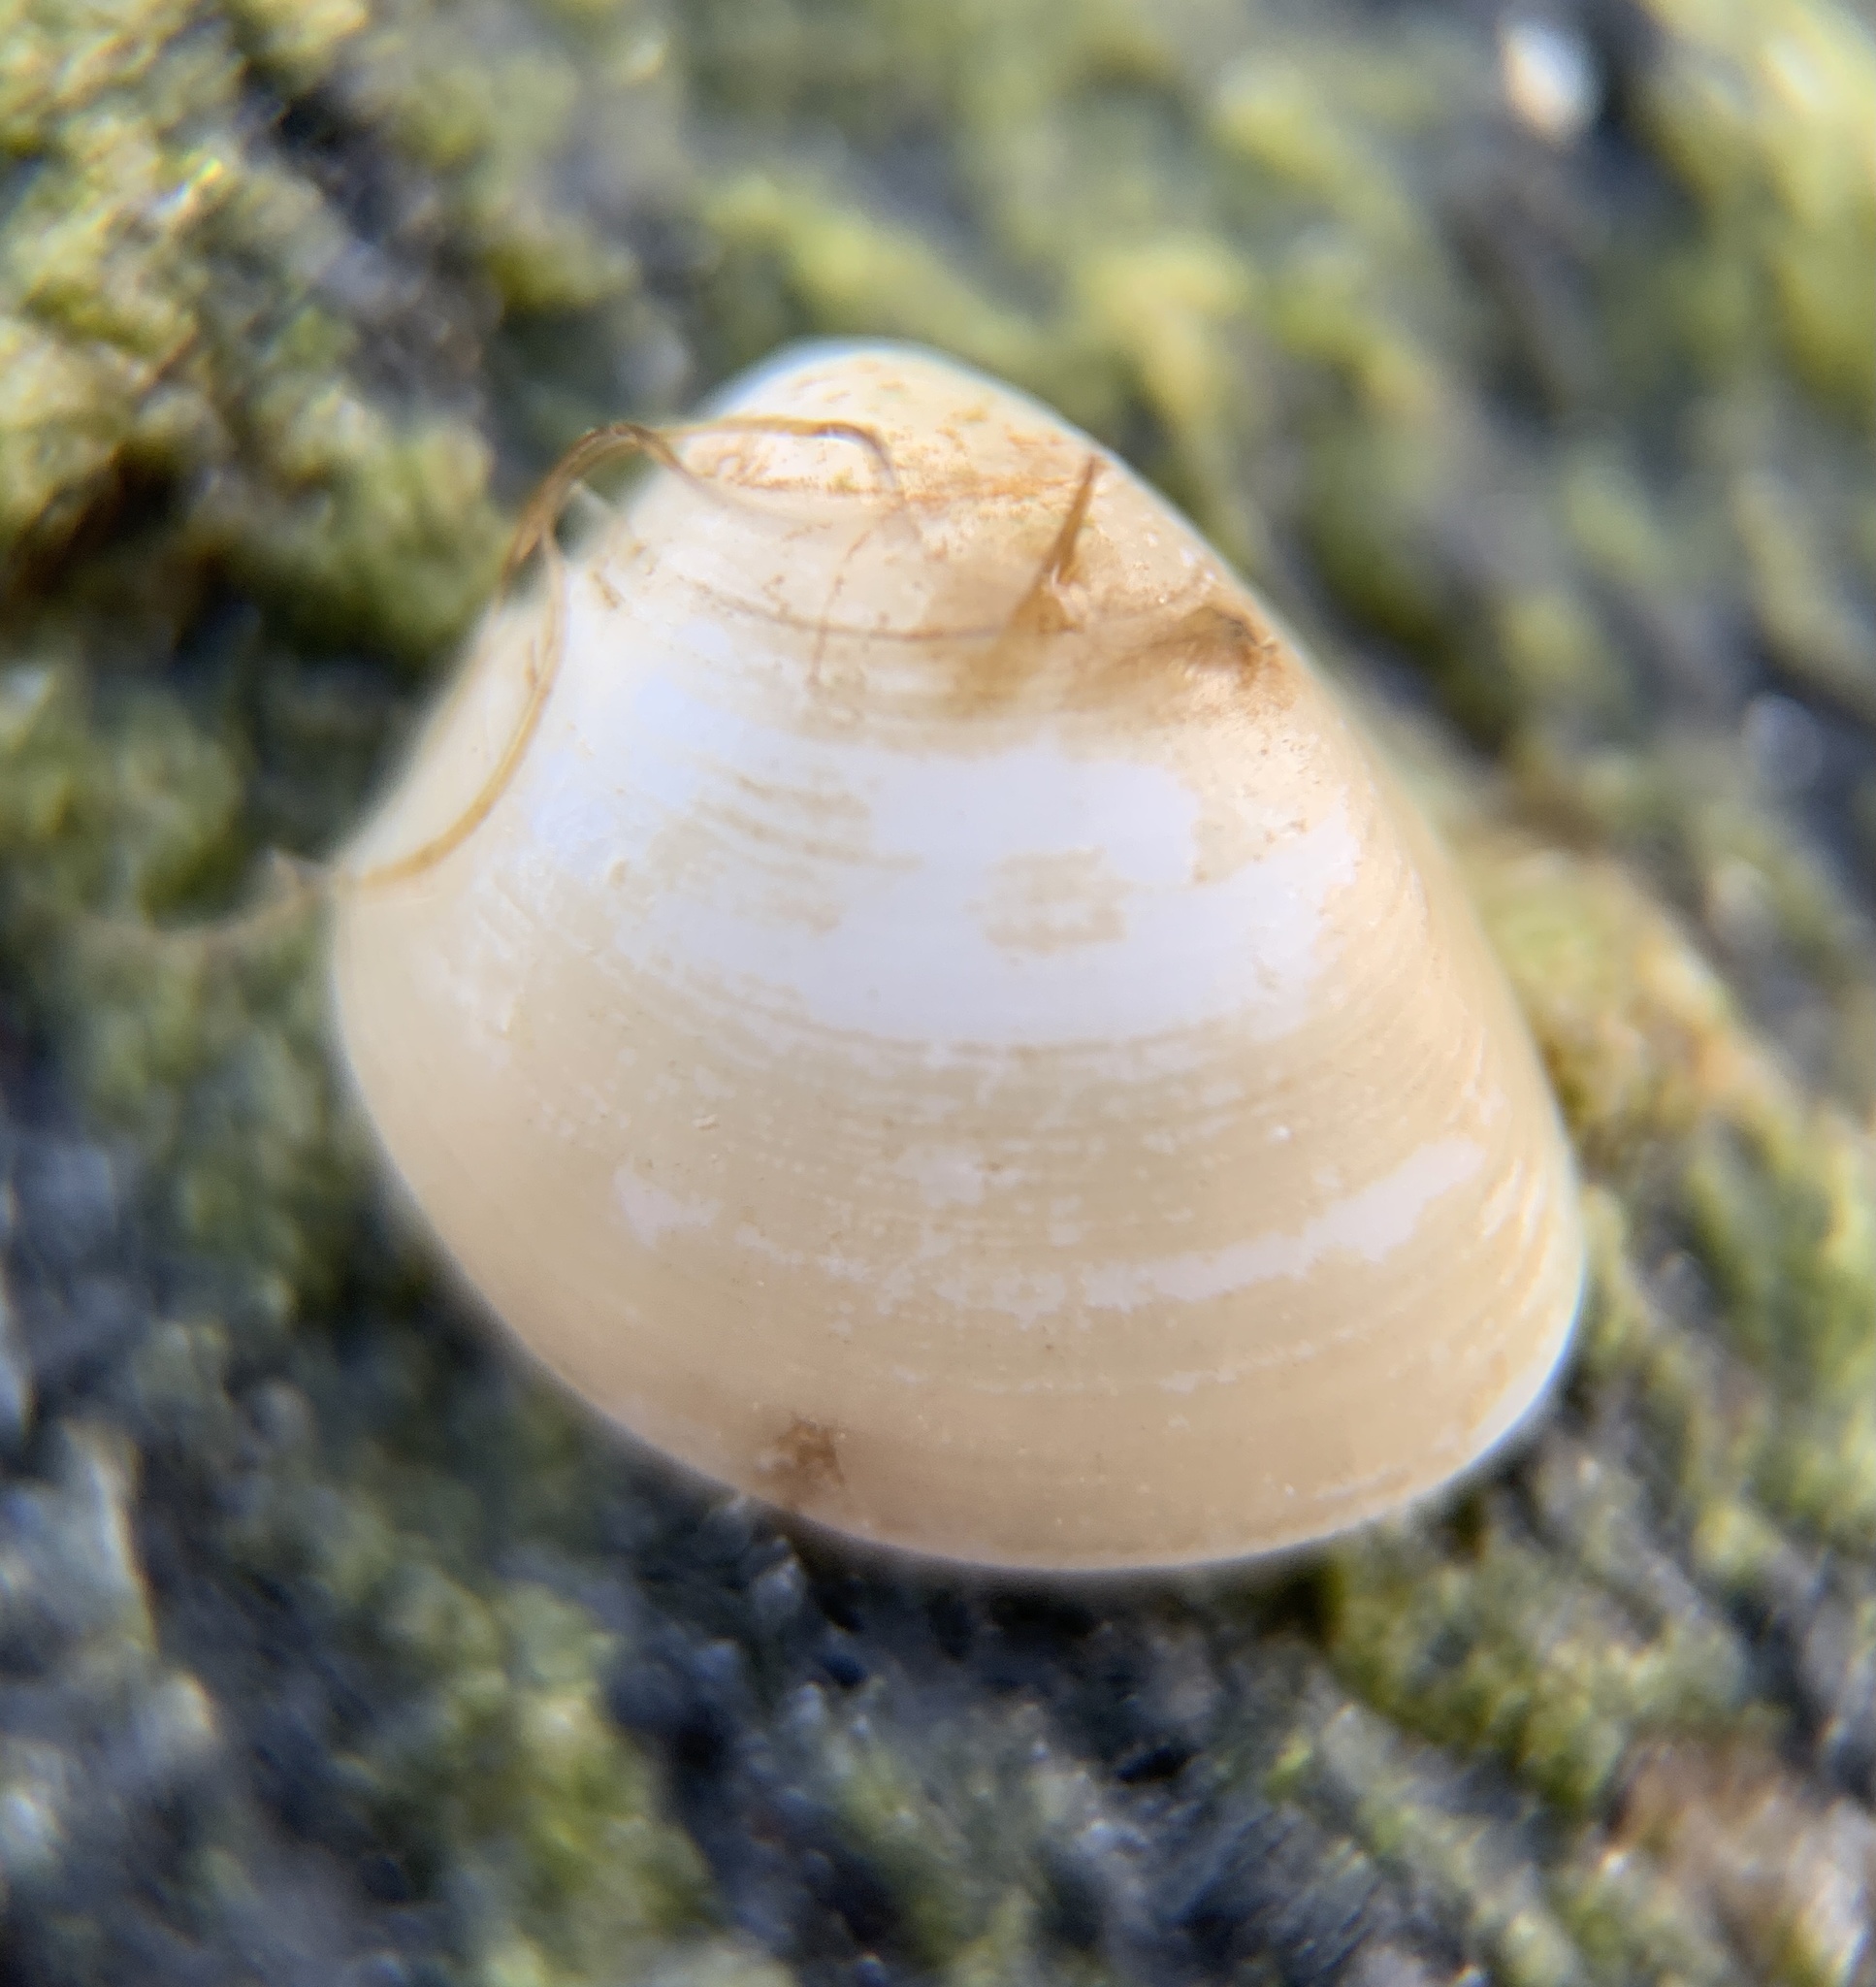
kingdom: Animalia
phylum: Mollusca
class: Bivalvia
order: Nuculida
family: Nuculidae
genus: Nucula
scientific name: Nucula proxima
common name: Atlantic nut clam
